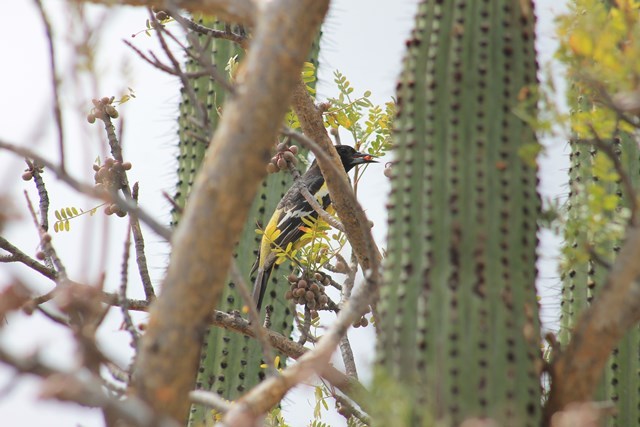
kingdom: Animalia
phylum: Chordata
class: Aves
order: Passeriformes
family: Icteridae
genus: Icterus
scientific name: Icterus parisorum
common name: Scott's oriole
